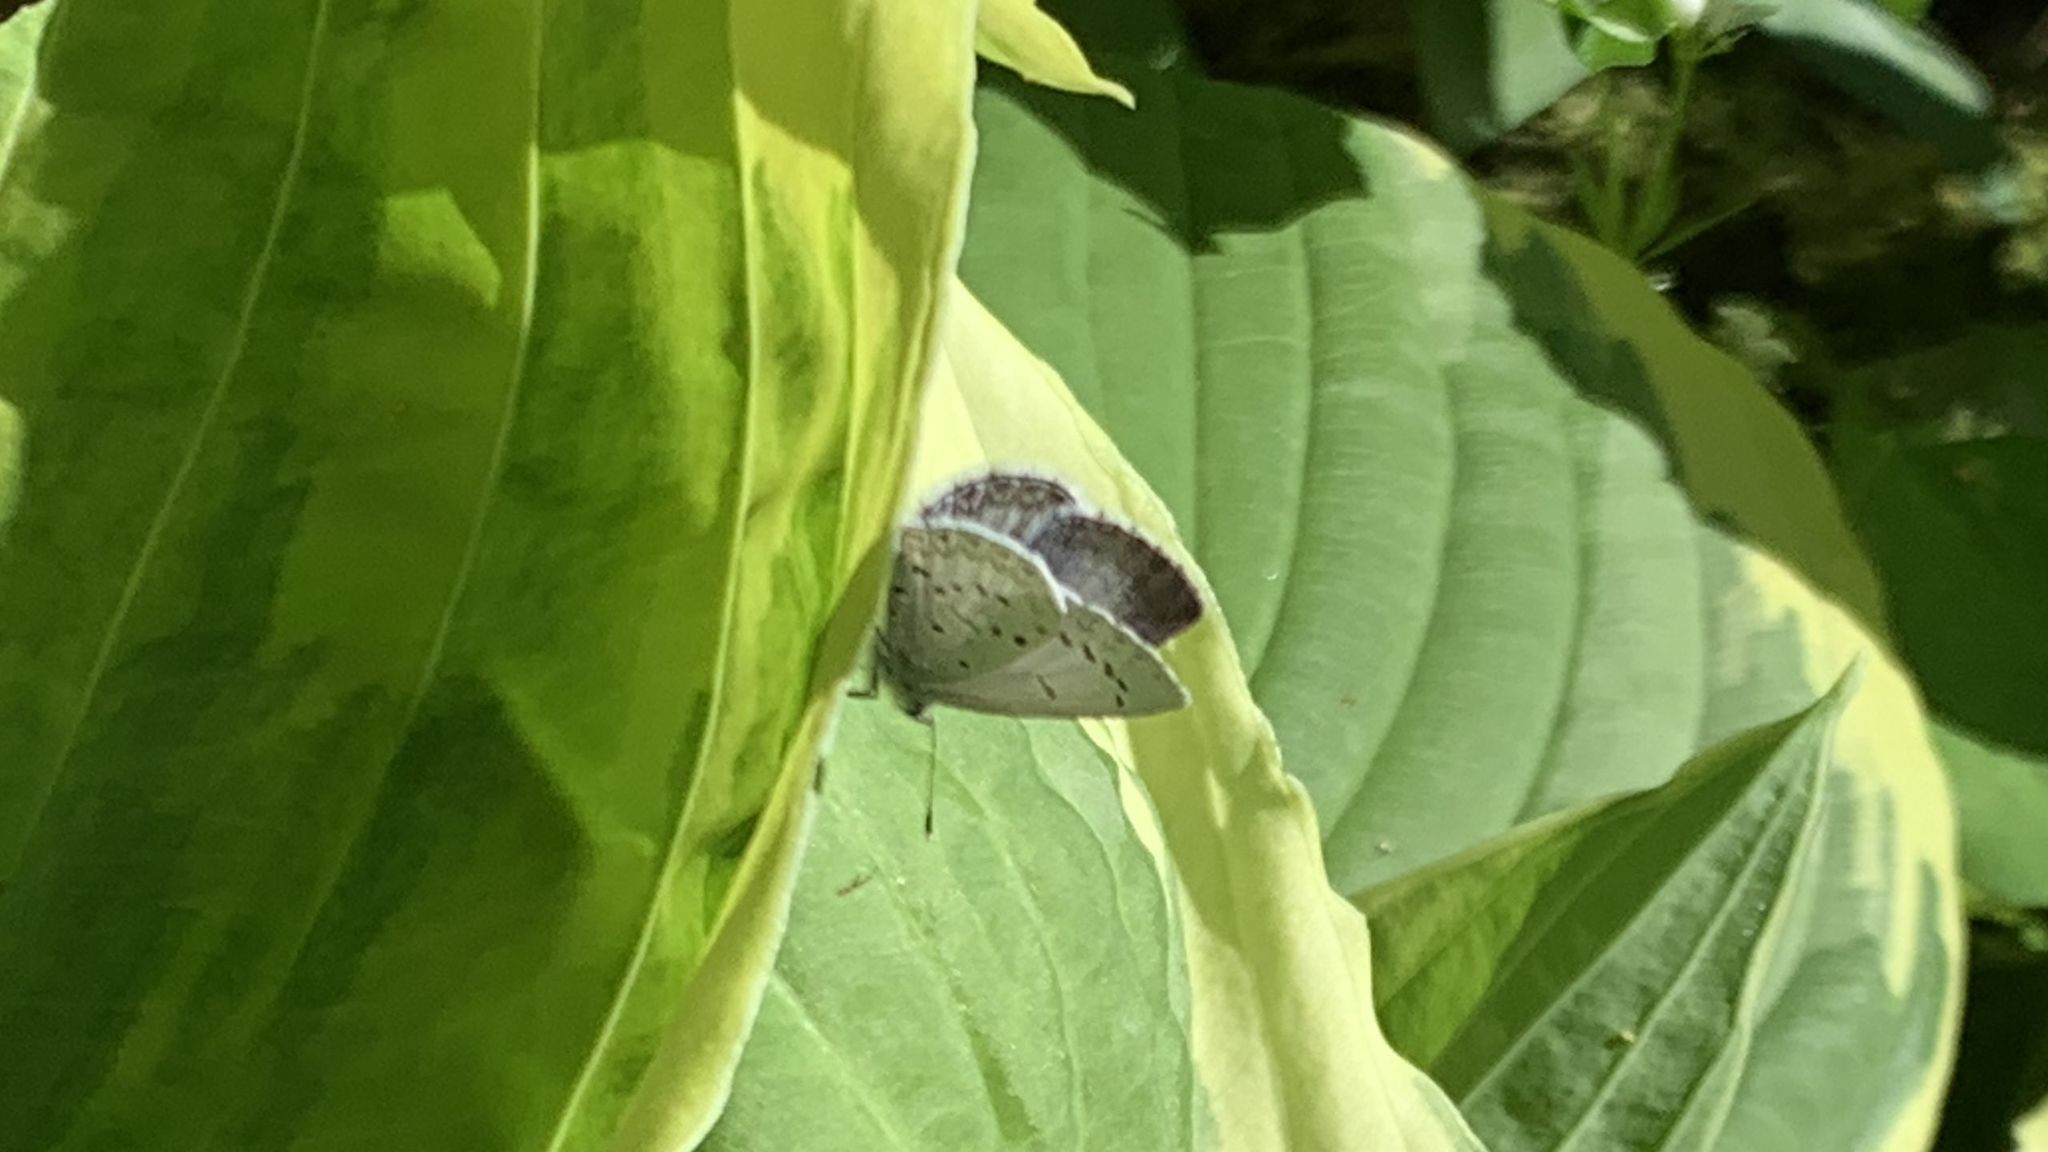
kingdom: Animalia
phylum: Arthropoda
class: Insecta
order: Lepidoptera
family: Lycaenidae
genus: Celastrina
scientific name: Celastrina ladon
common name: Spring azure
